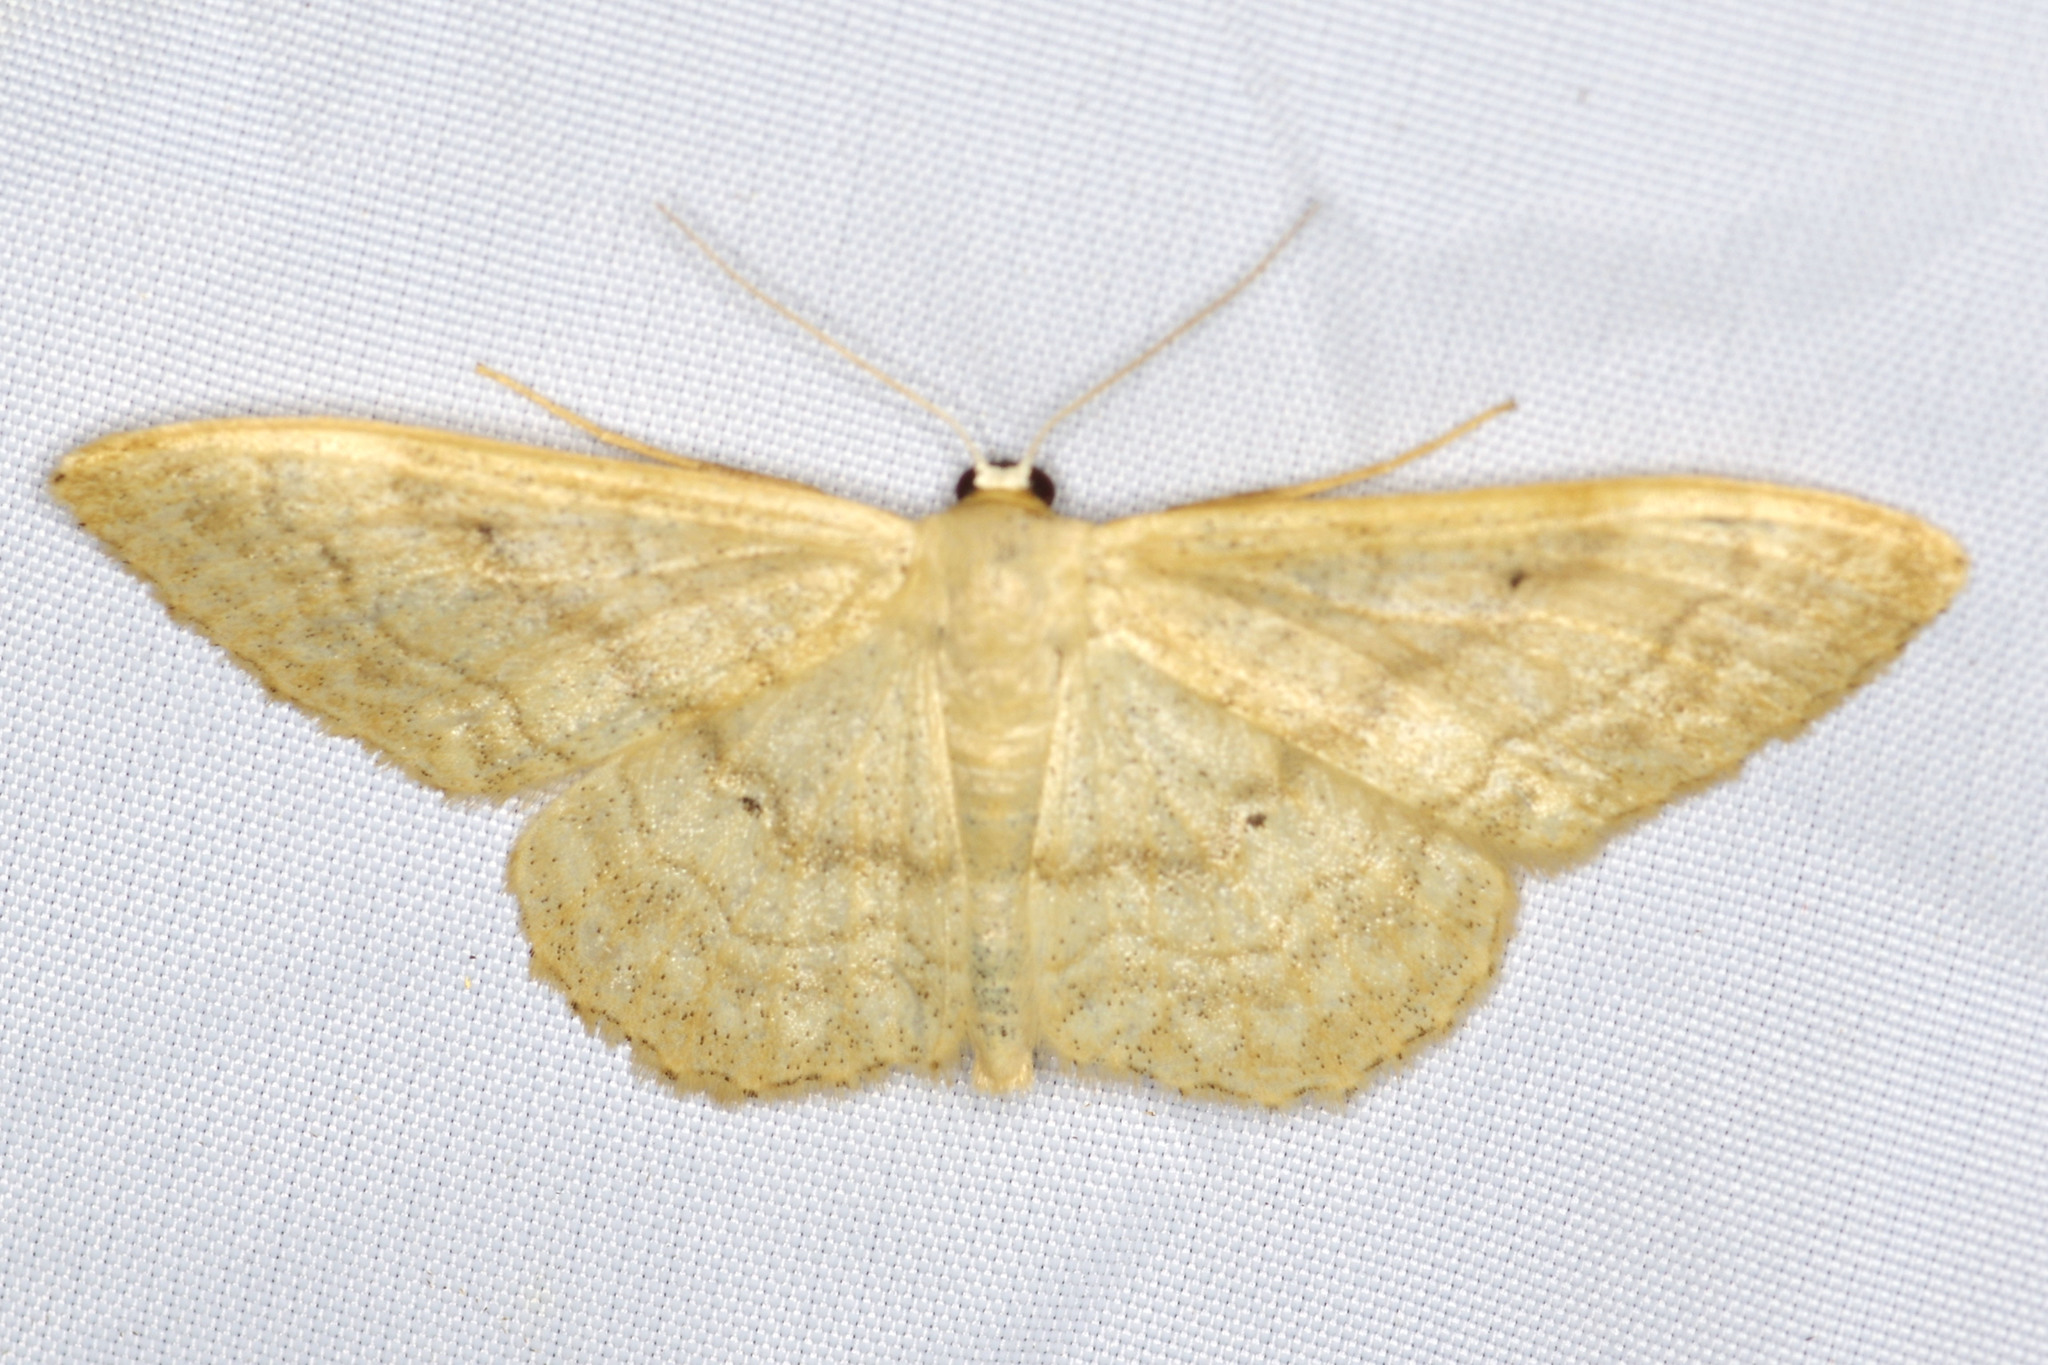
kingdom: Animalia
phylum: Arthropoda
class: Insecta
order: Lepidoptera
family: Geometridae
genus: Idaea
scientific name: Idaea maritimaria
